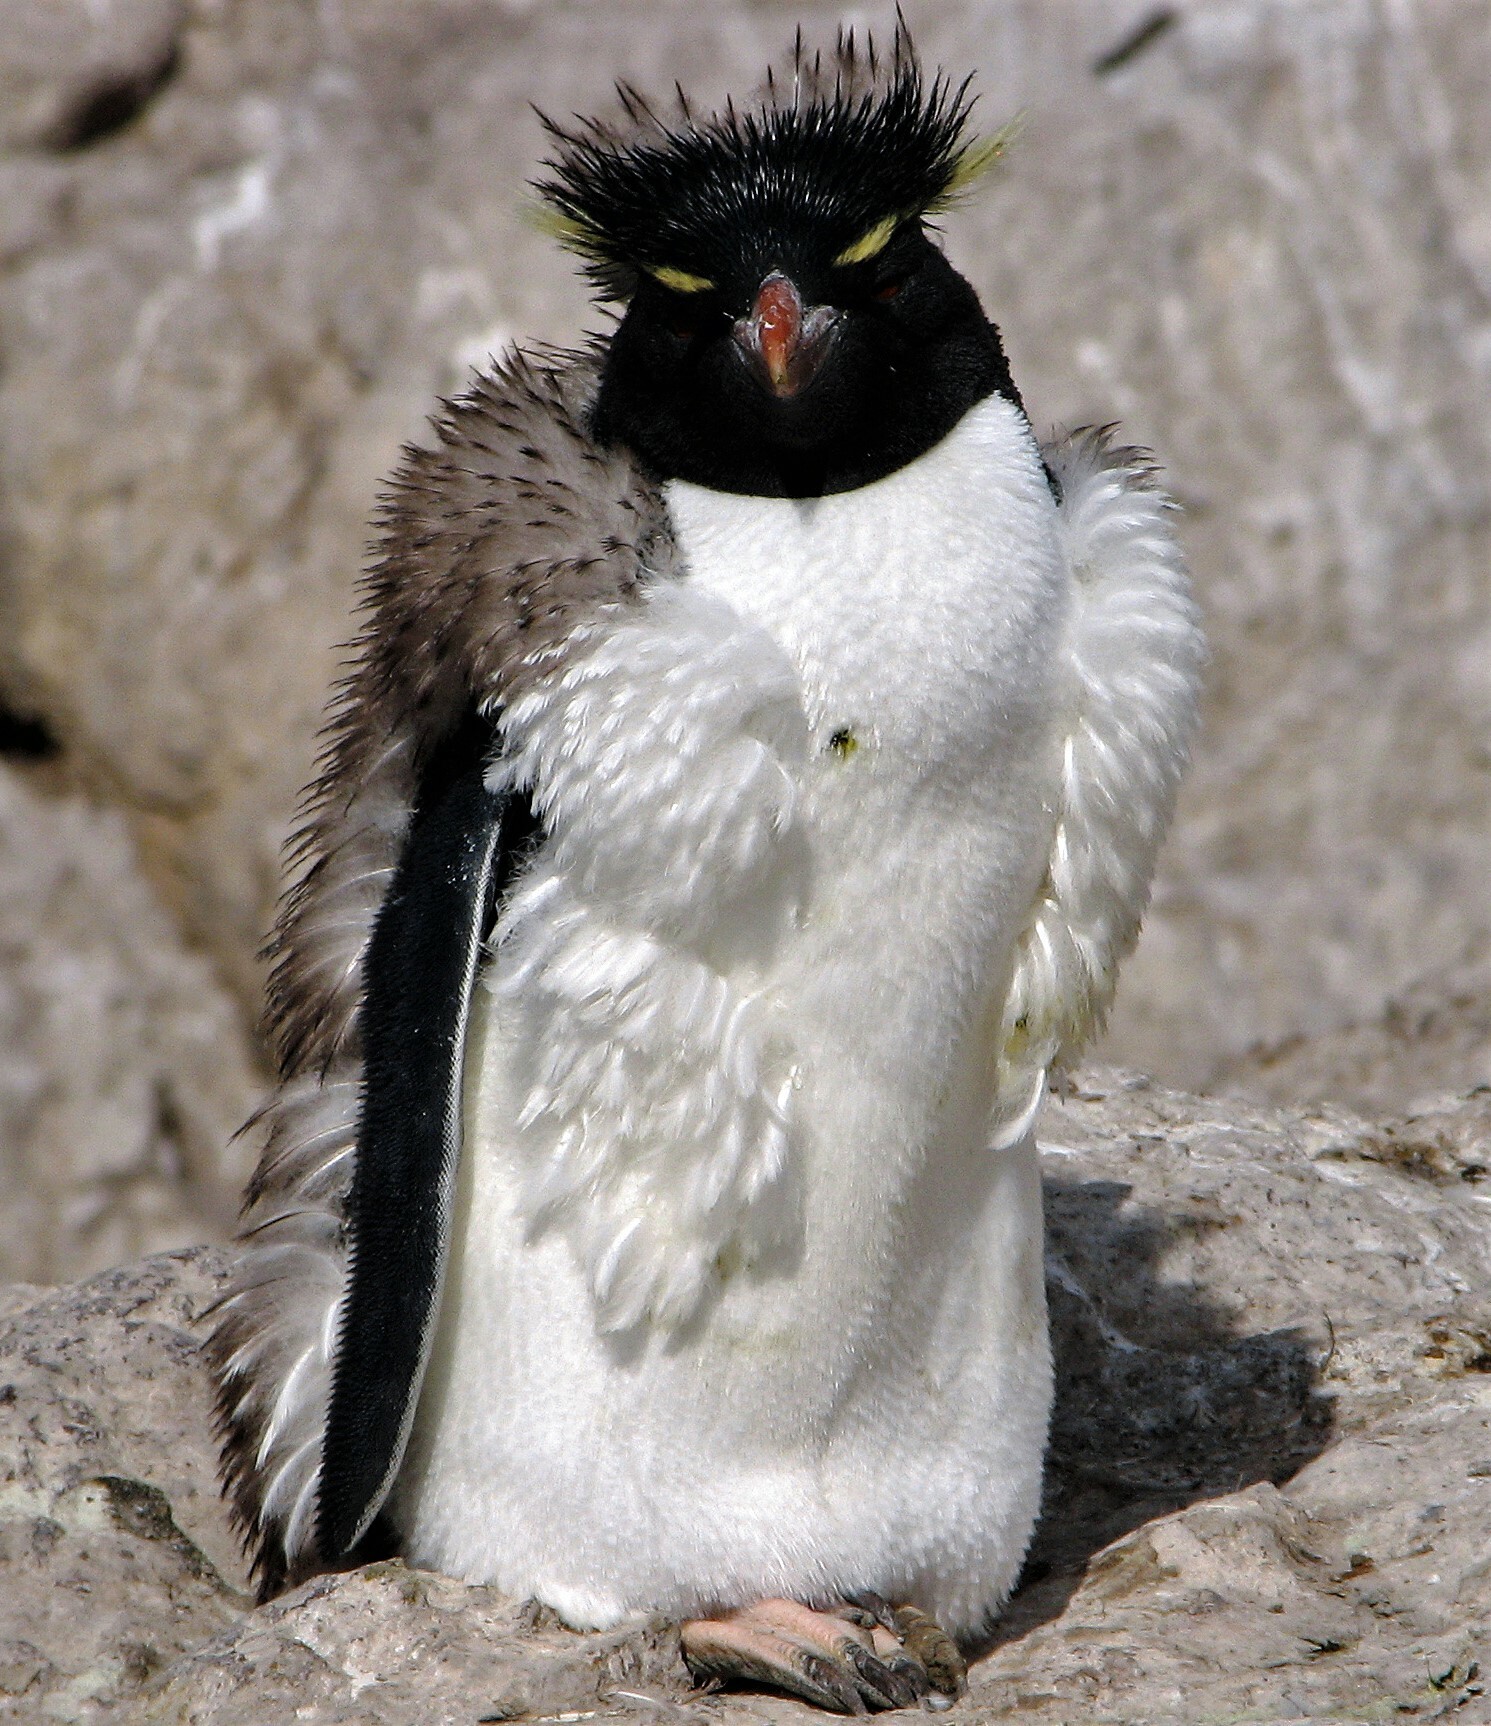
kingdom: Animalia
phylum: Chordata
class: Aves
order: Sphenisciformes
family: Spheniscidae
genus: Eudyptes
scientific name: Eudyptes chrysocome
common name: Southern rockhopper penguin
